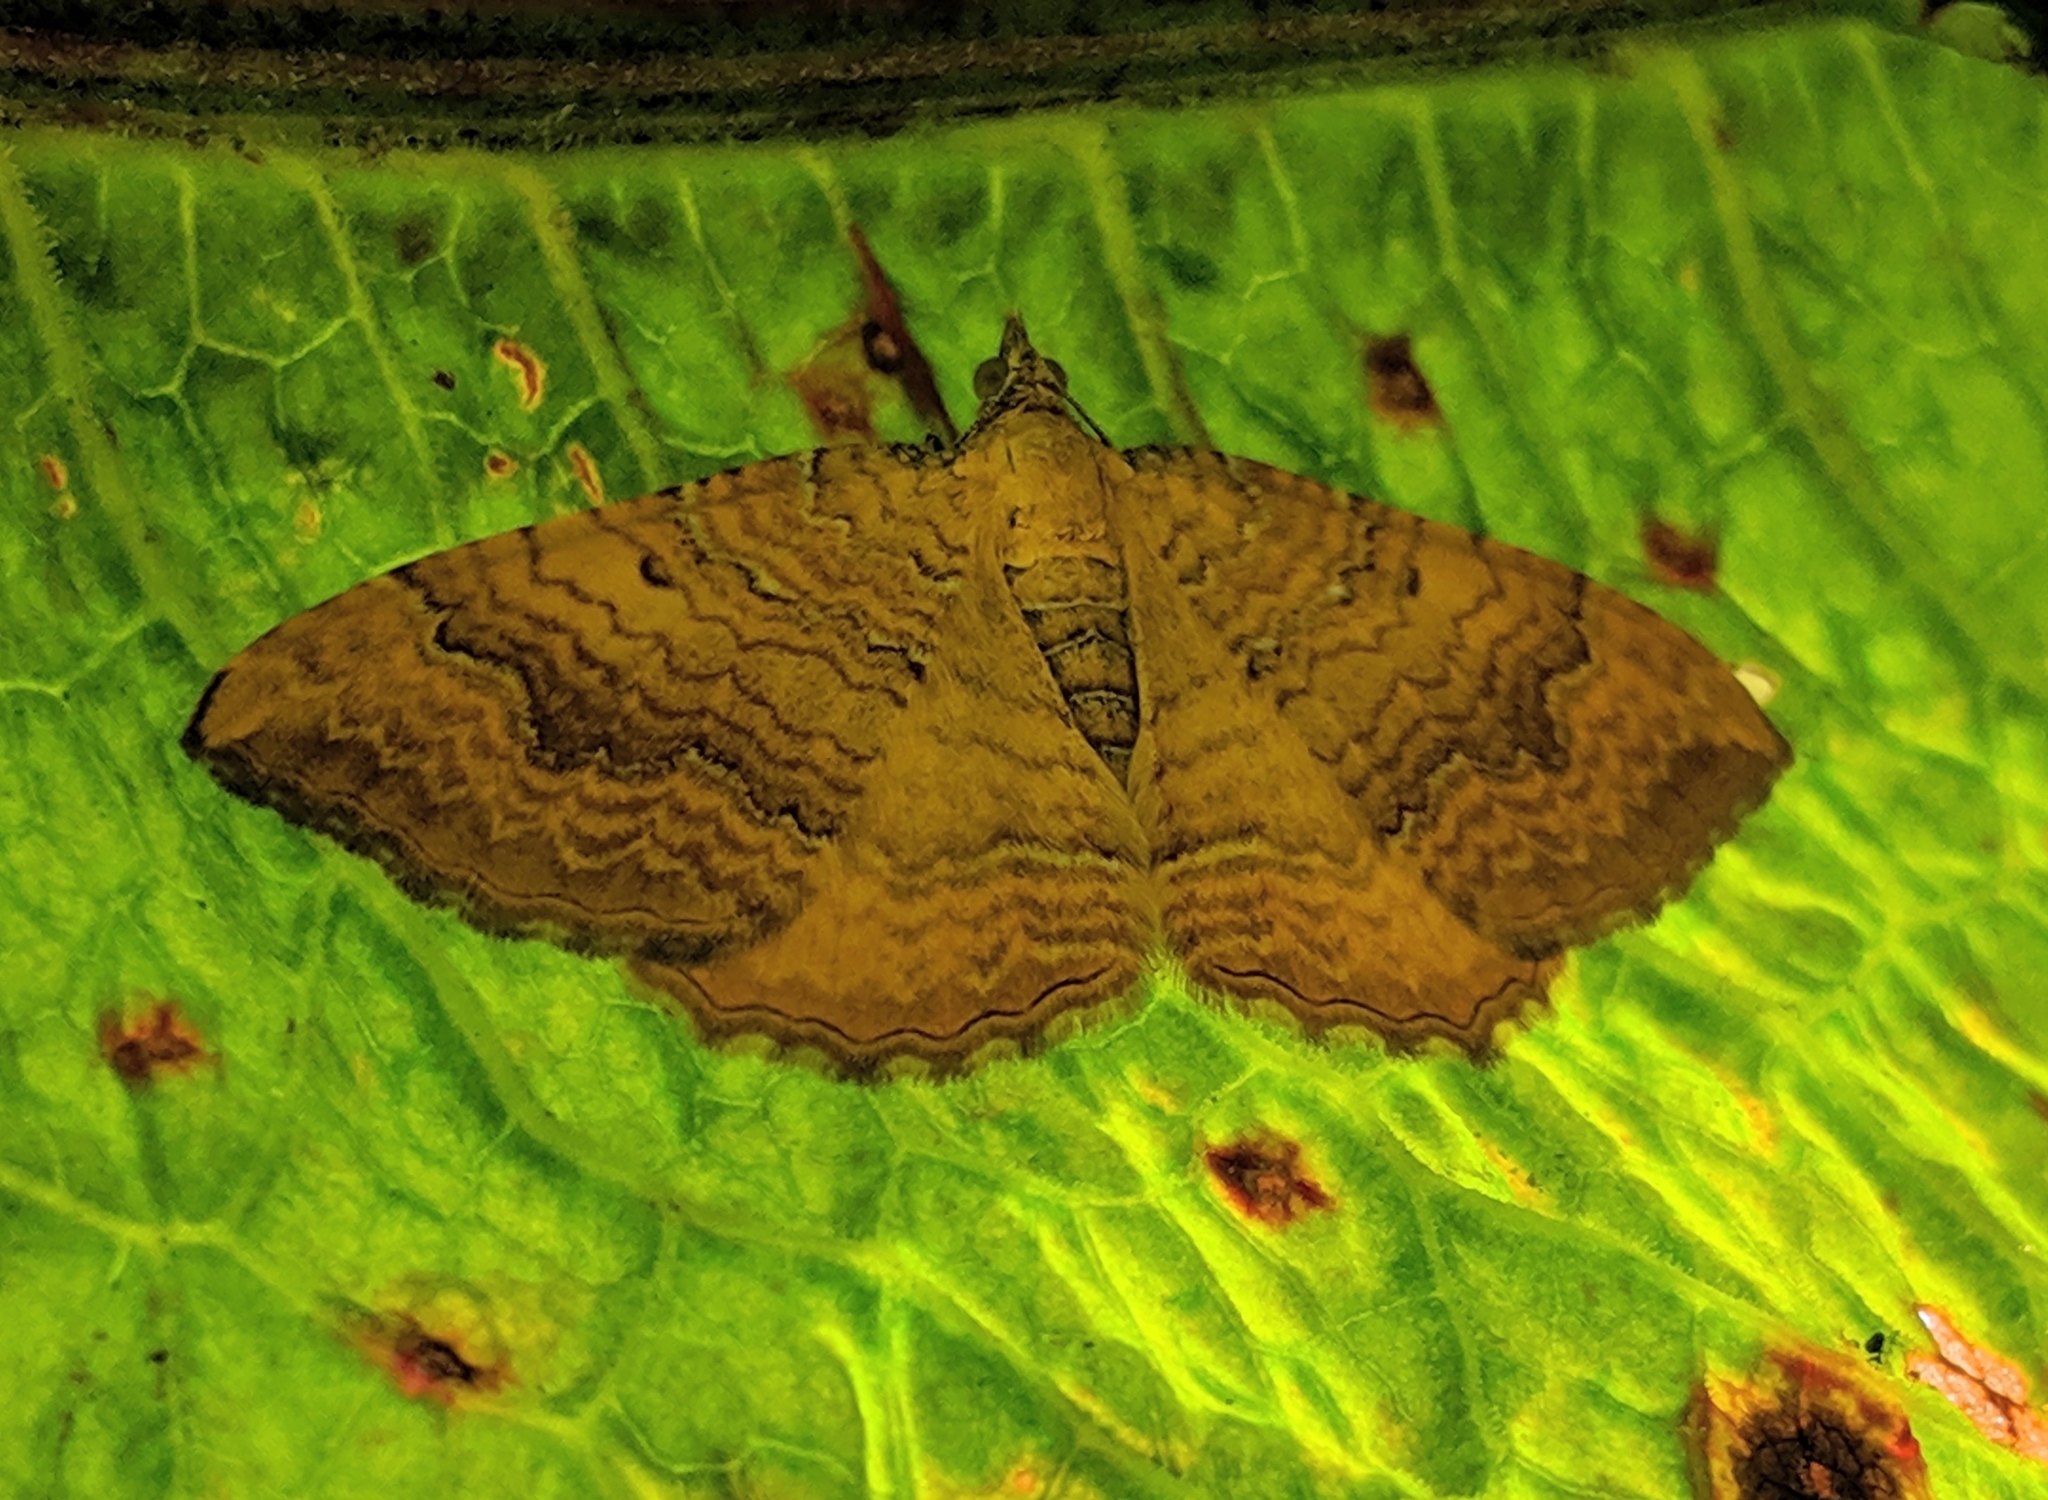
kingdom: Animalia
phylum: Arthropoda
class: Insecta
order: Lepidoptera
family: Geometridae
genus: Camptogramma
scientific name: Camptogramma bilineata
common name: Yellow shell
